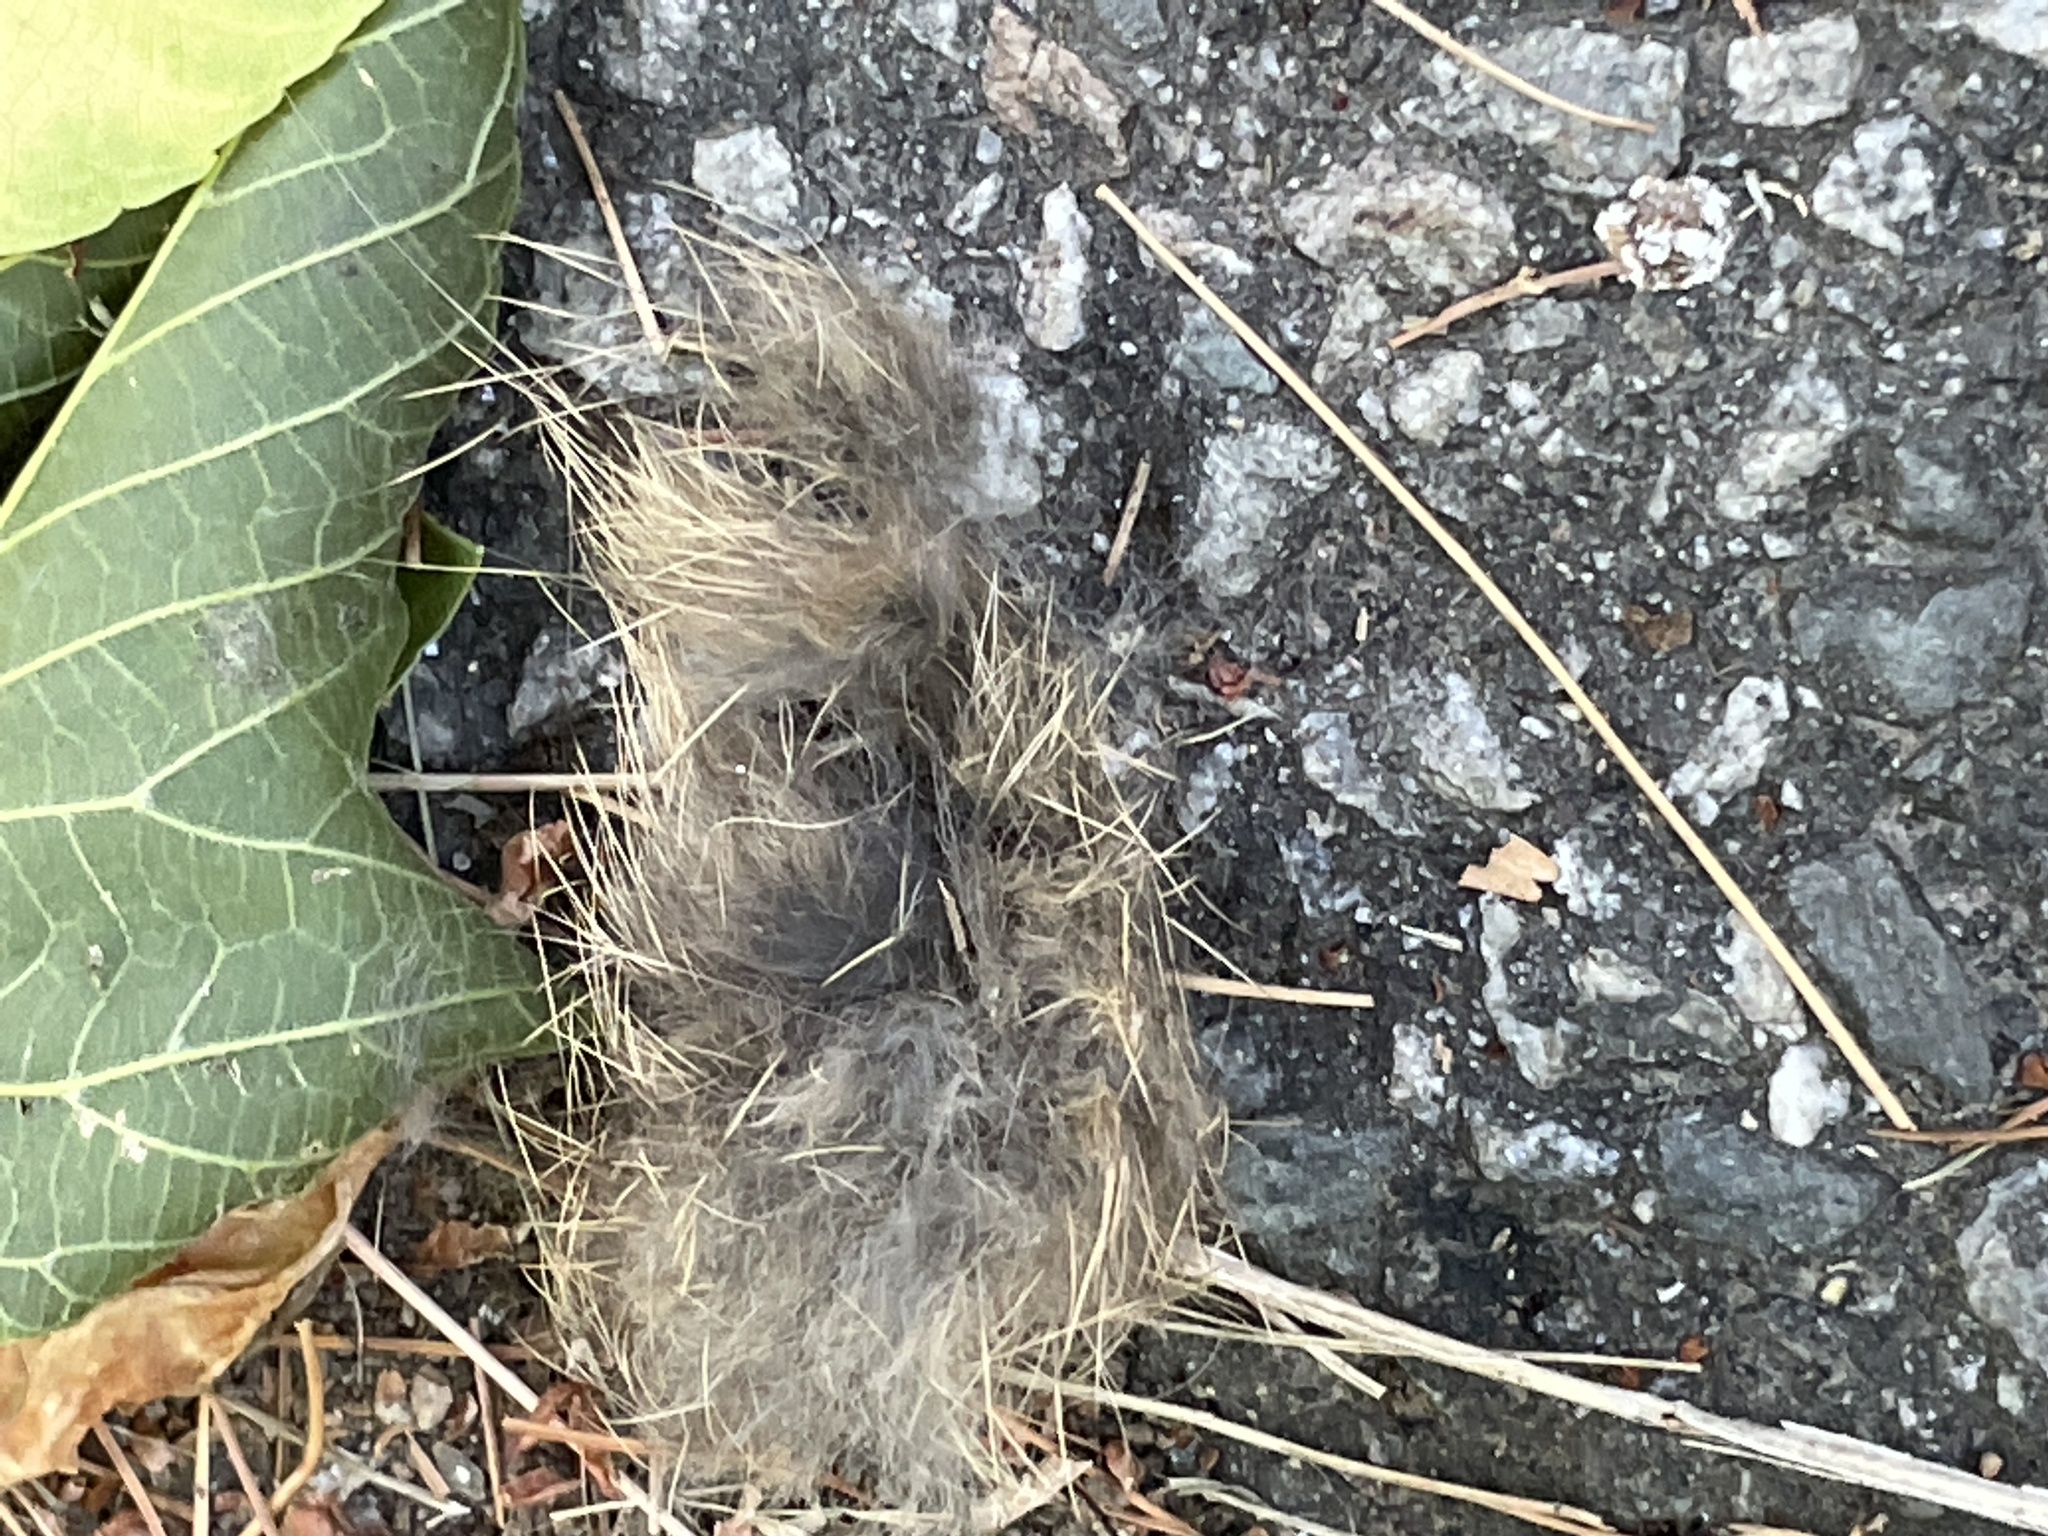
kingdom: Animalia
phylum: Chordata
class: Mammalia
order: Lagomorpha
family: Leporidae
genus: Sylvilagus
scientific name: Sylvilagus floridanus
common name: Eastern cottontail
